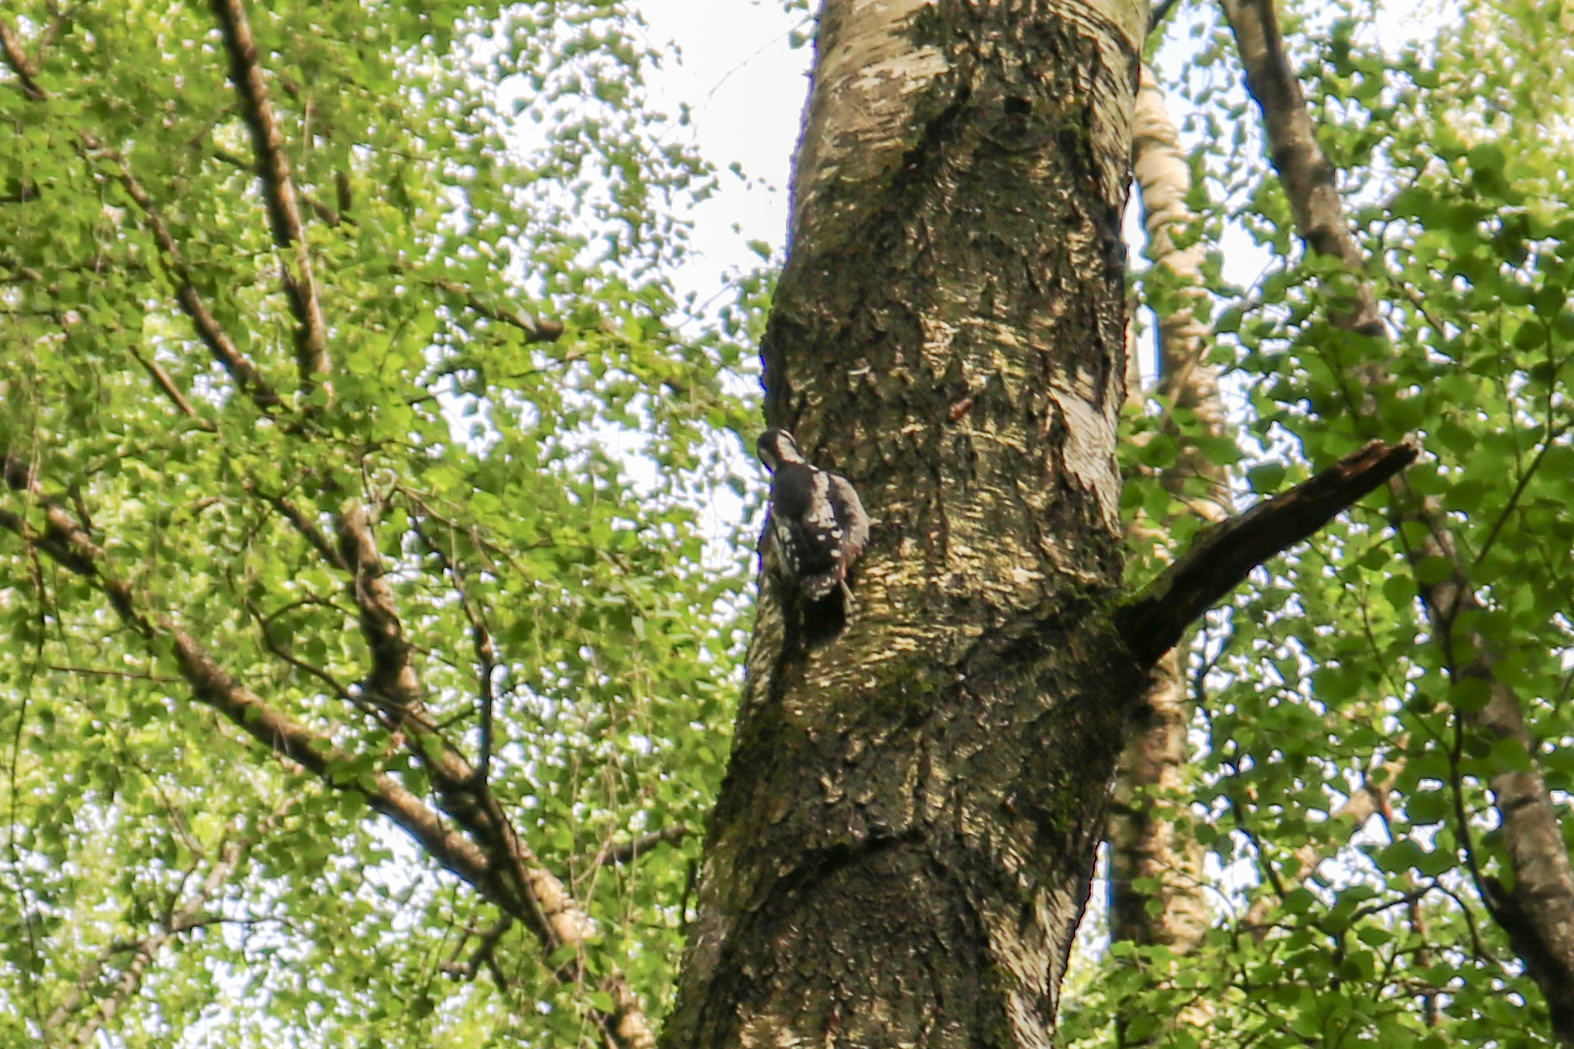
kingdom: Animalia
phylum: Chordata
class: Aves
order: Piciformes
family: Picidae
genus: Dendrocopos
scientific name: Dendrocopos major
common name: Great spotted woodpecker
